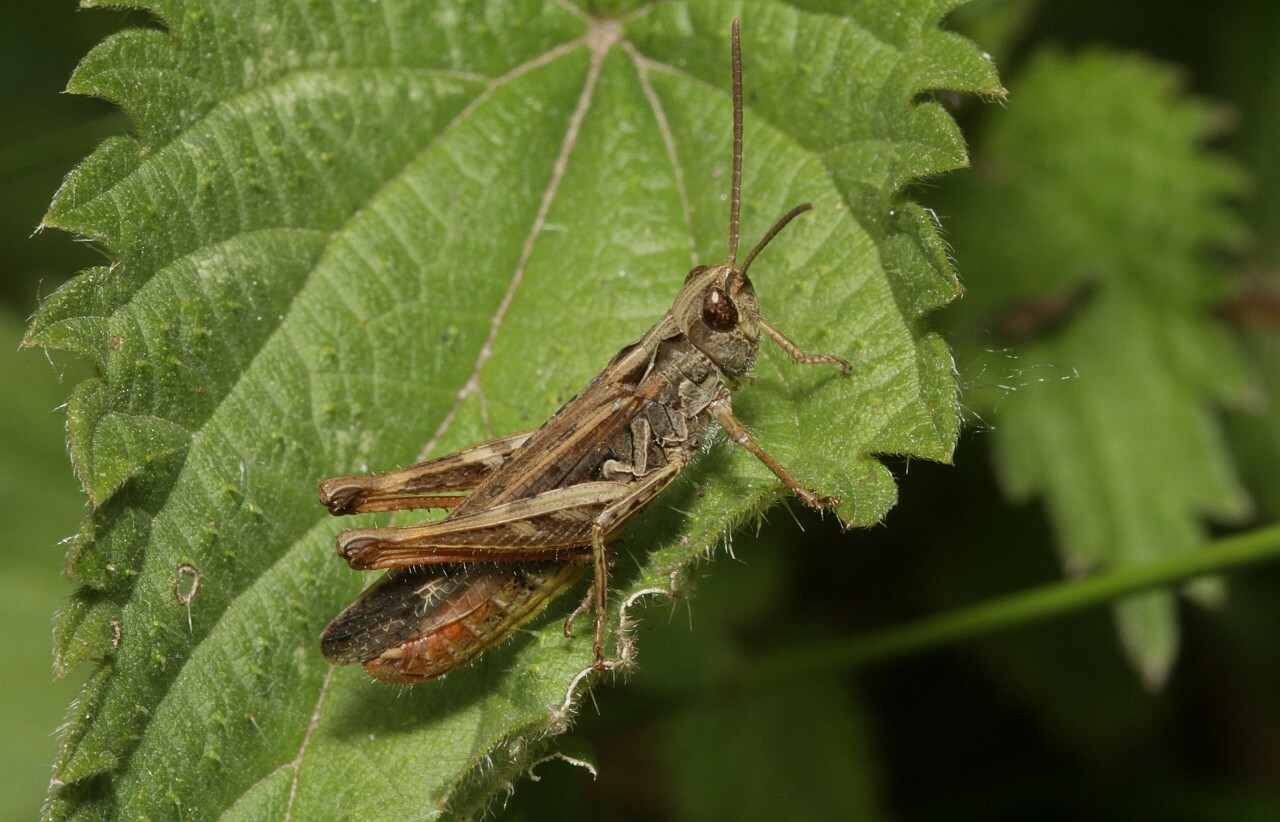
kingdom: Animalia
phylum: Arthropoda
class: Insecta
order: Orthoptera
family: Acrididae
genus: Chorthippus
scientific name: Chorthippus biguttulus
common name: Bow-winged grasshopper
